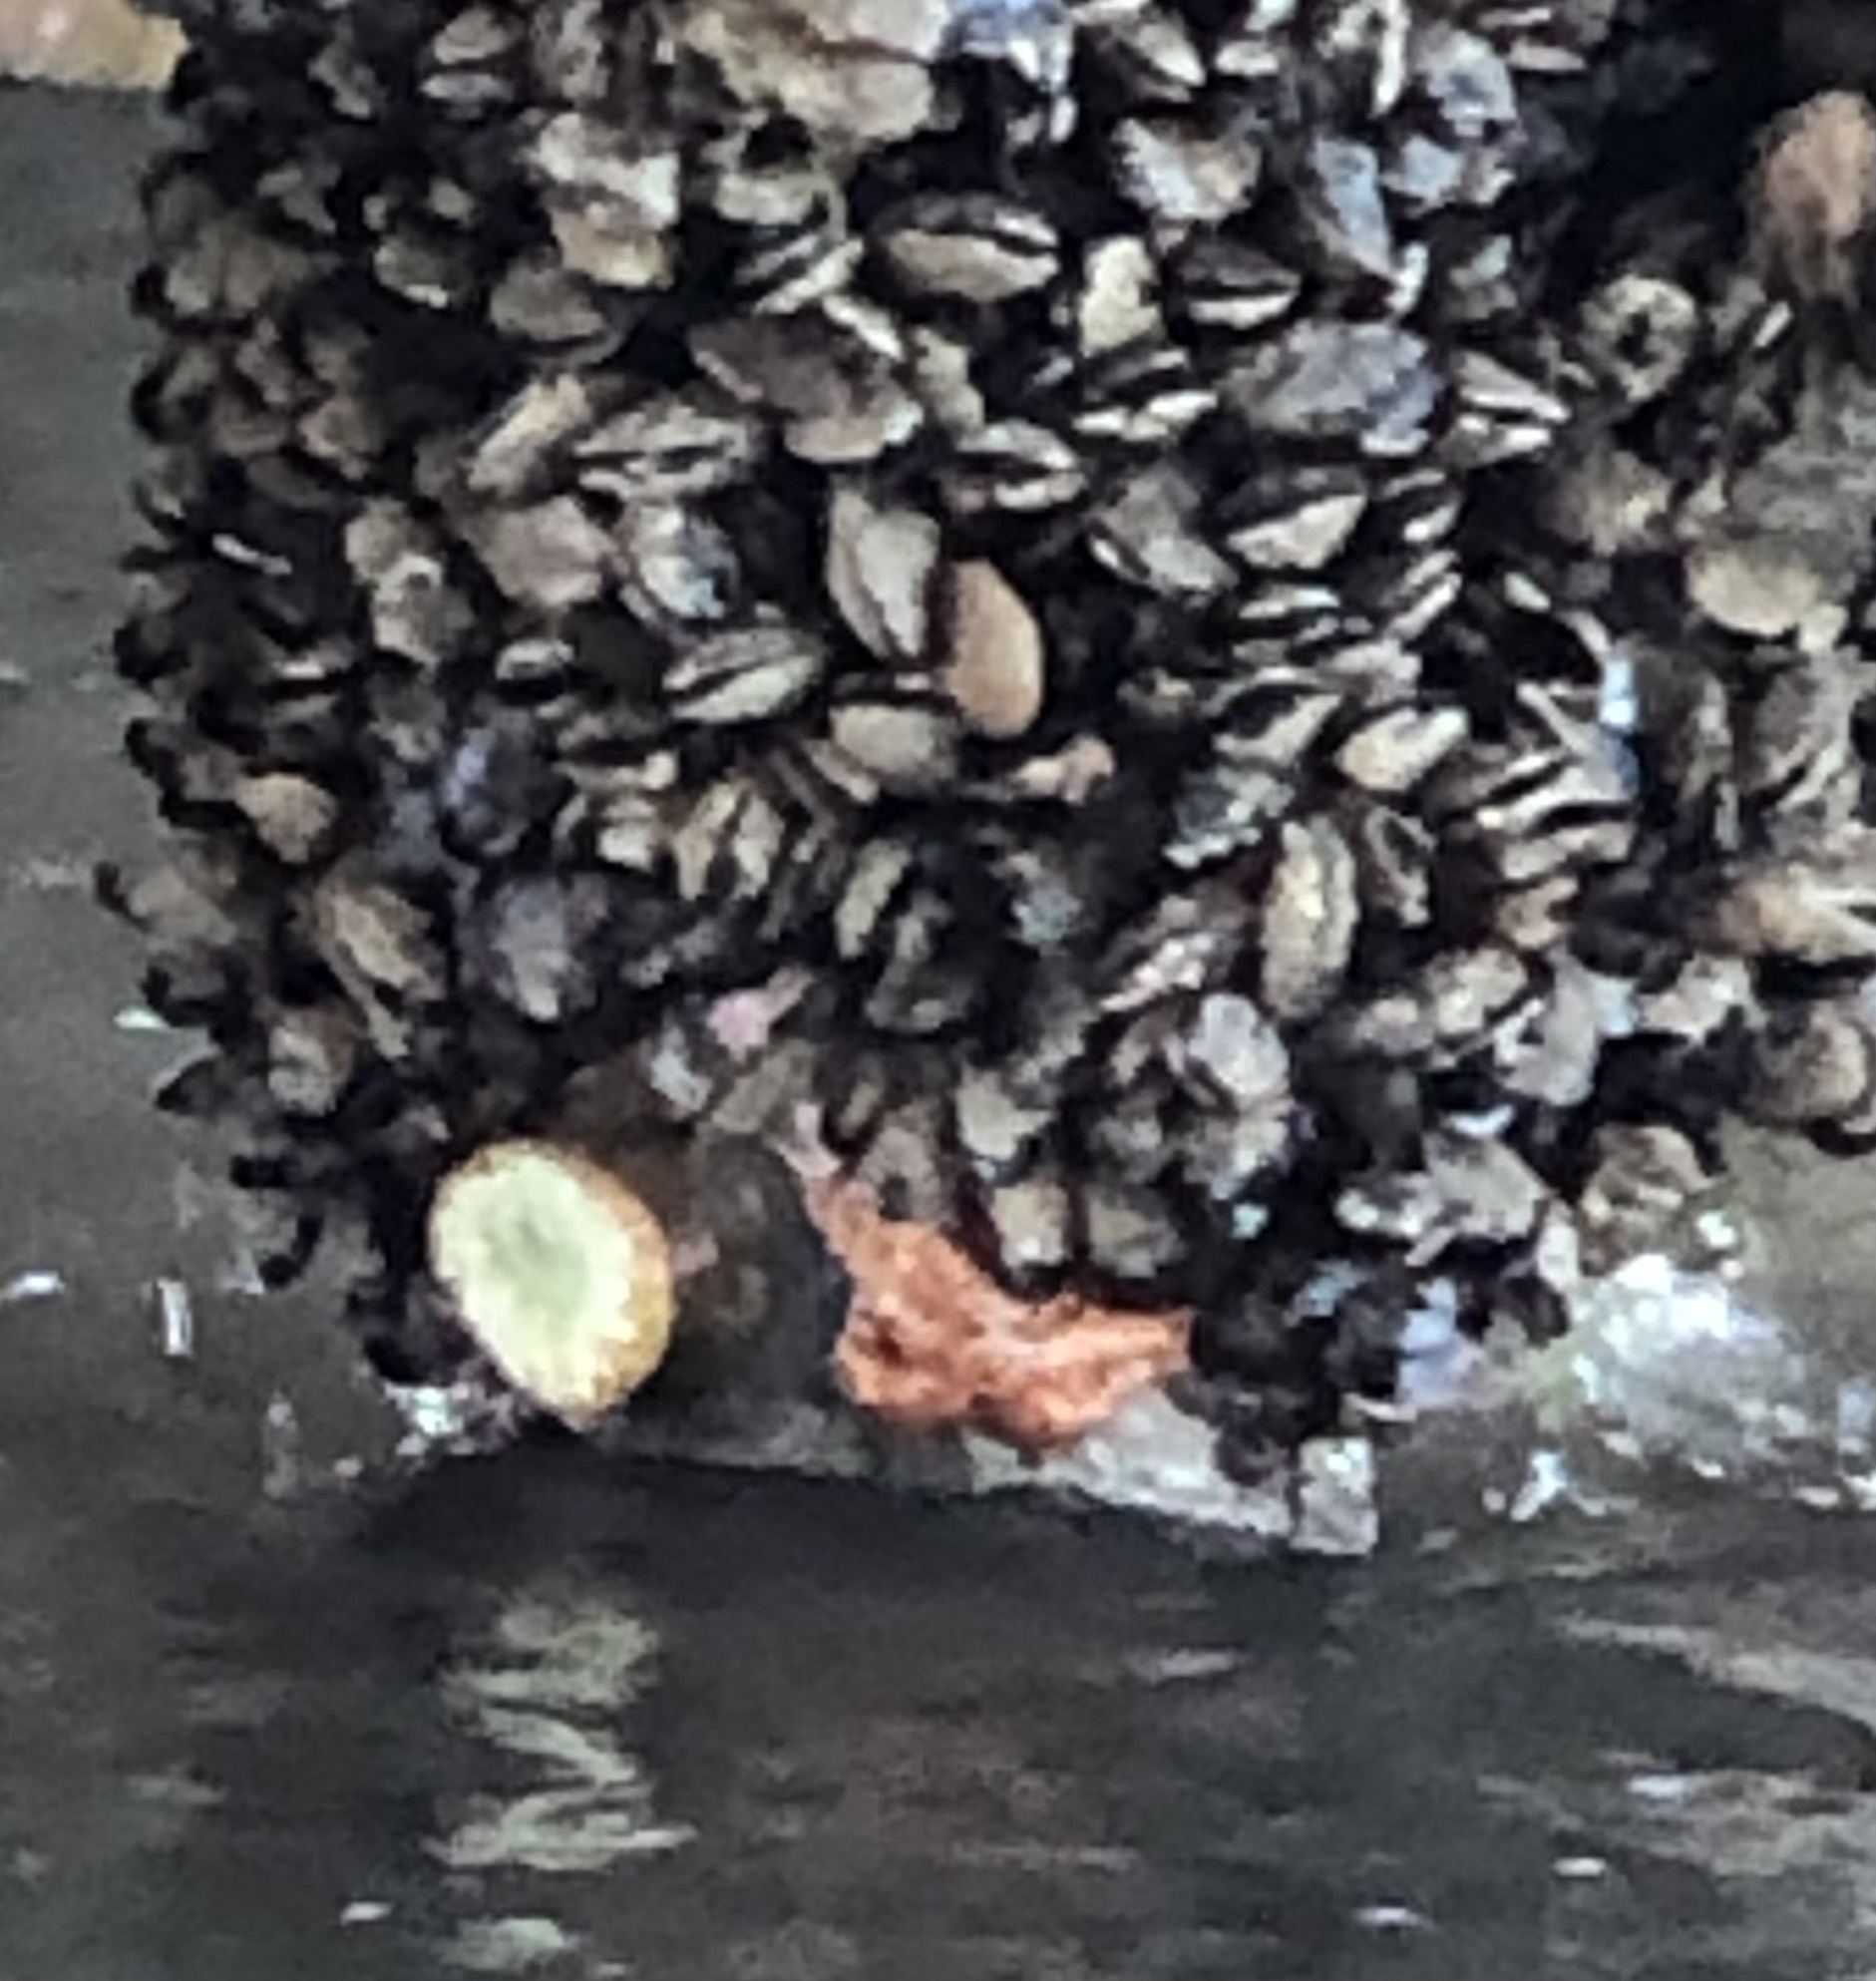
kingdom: Animalia
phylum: Echinodermata
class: Asteroidea
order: Forcipulatida
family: Asteriidae
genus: Pisaster
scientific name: Pisaster ochraceus
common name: Ochre stars
